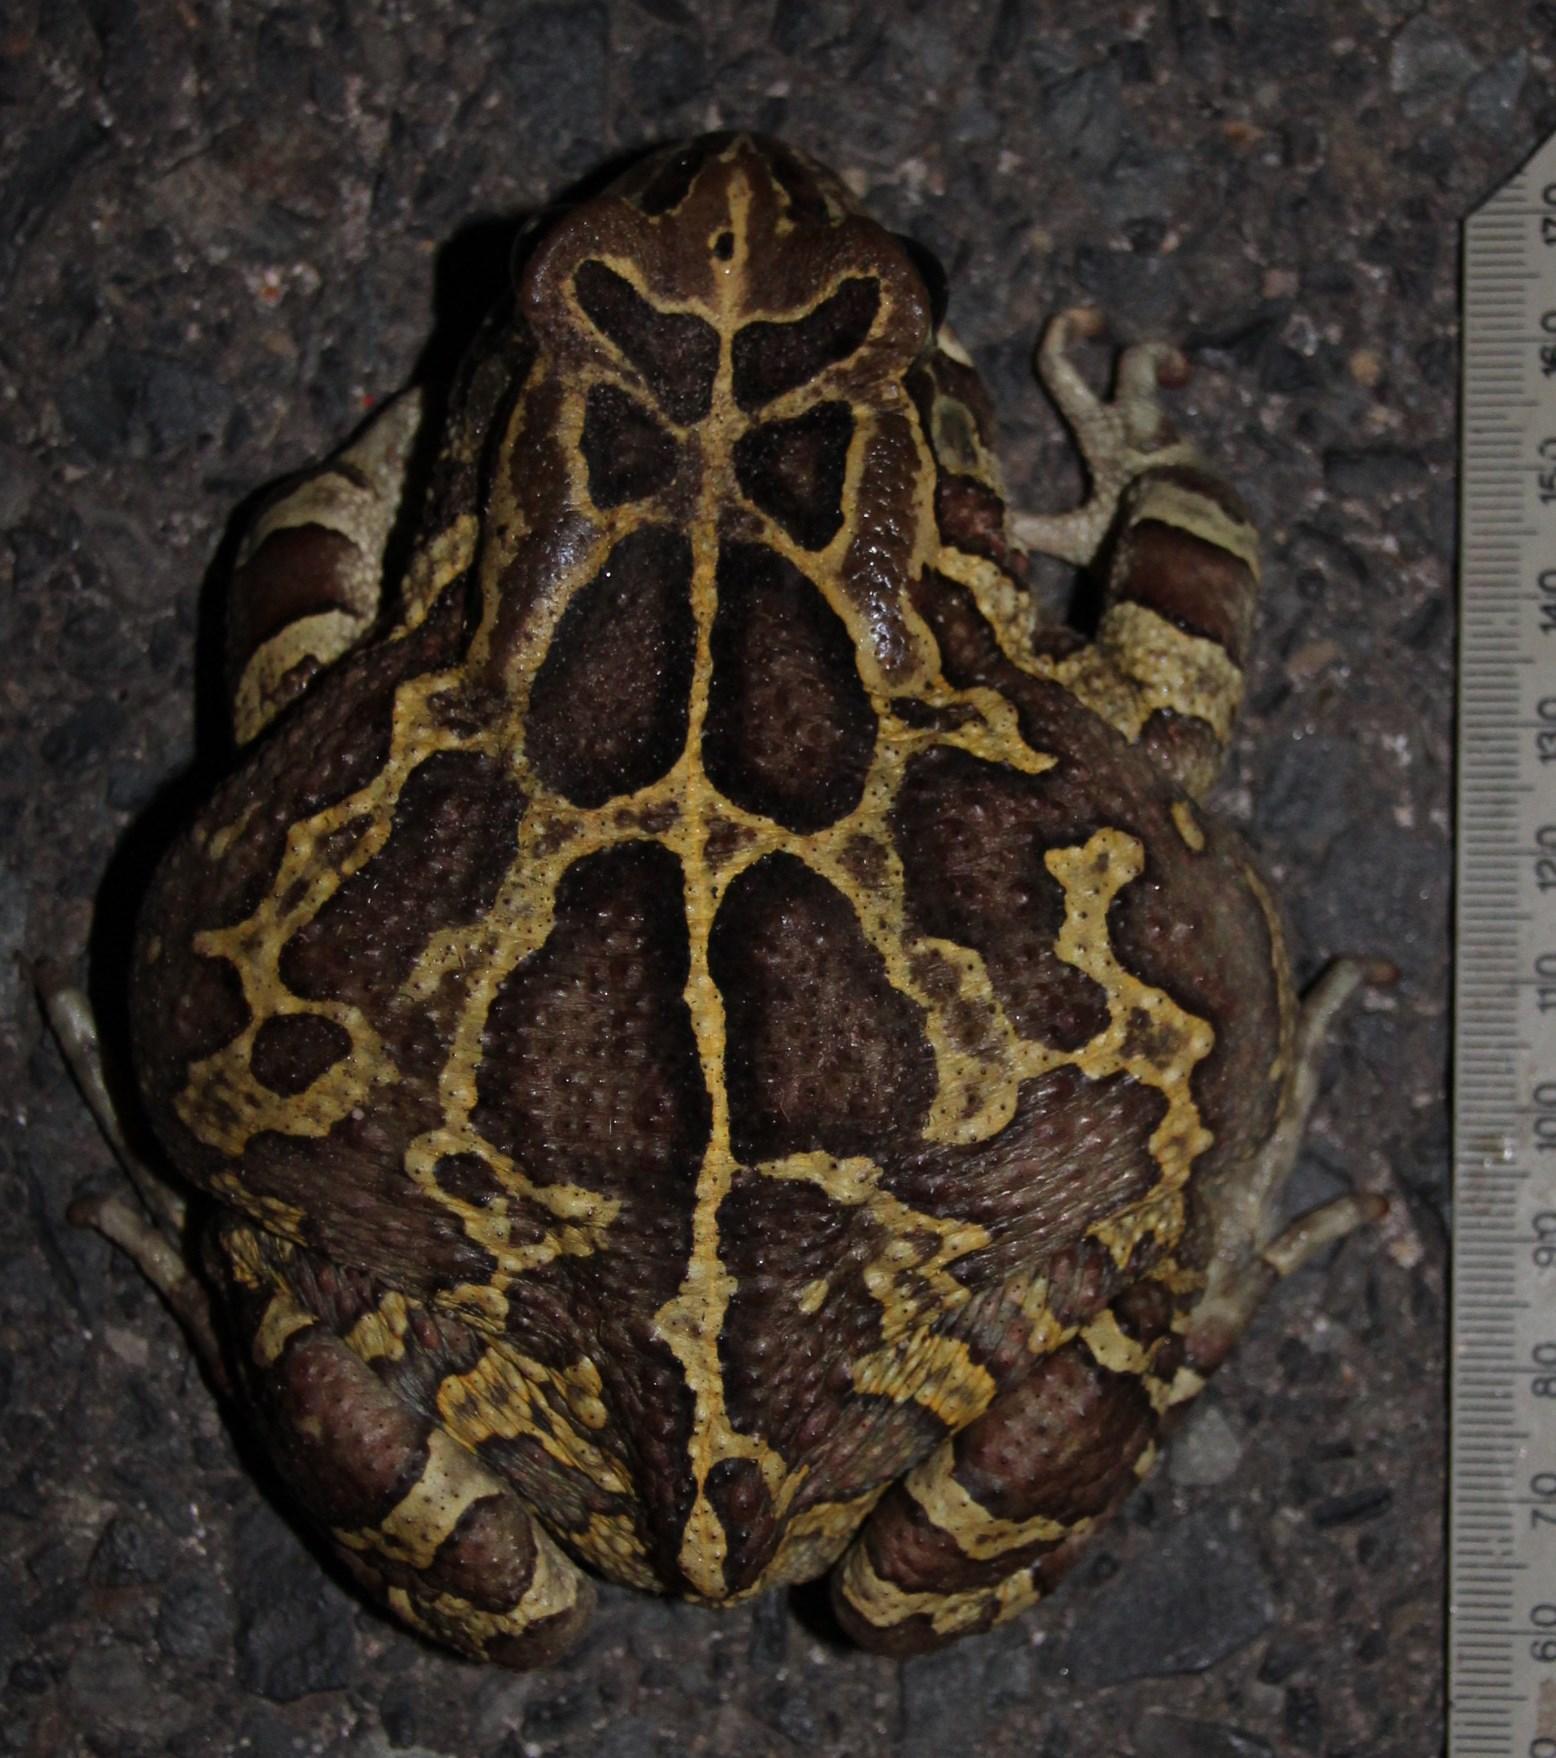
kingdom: Animalia
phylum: Chordata
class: Amphibia
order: Anura
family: Bufonidae
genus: Sclerophrys
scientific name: Sclerophrys pantherina
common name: Panther toad
